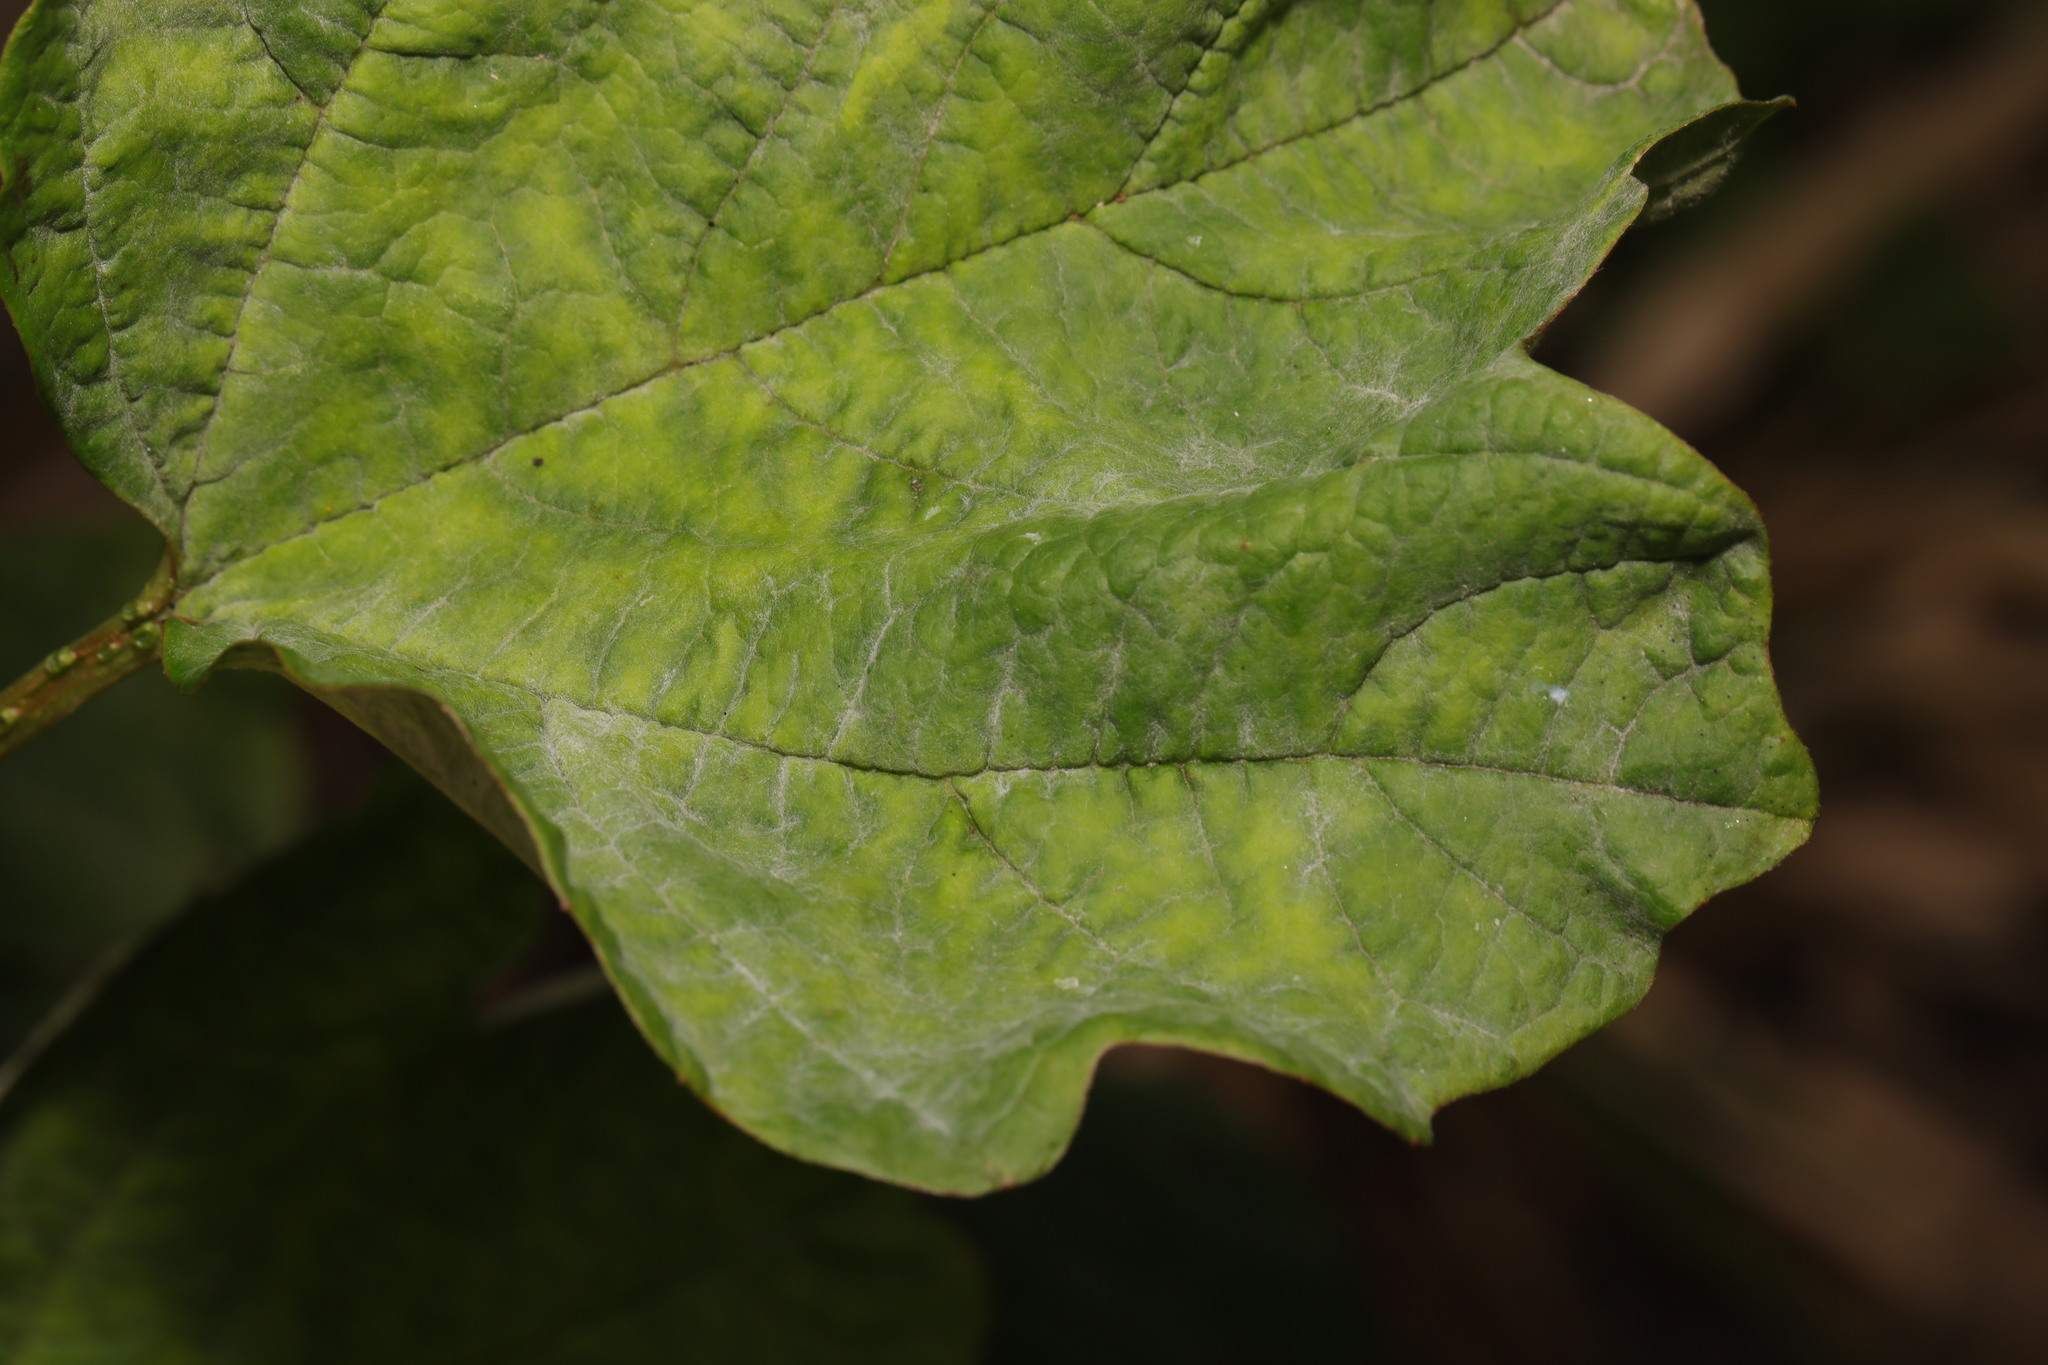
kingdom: Fungi
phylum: Ascomycota
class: Leotiomycetes
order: Helotiales
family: Erysiphaceae
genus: Erysiphe
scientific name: Erysiphe viburni
